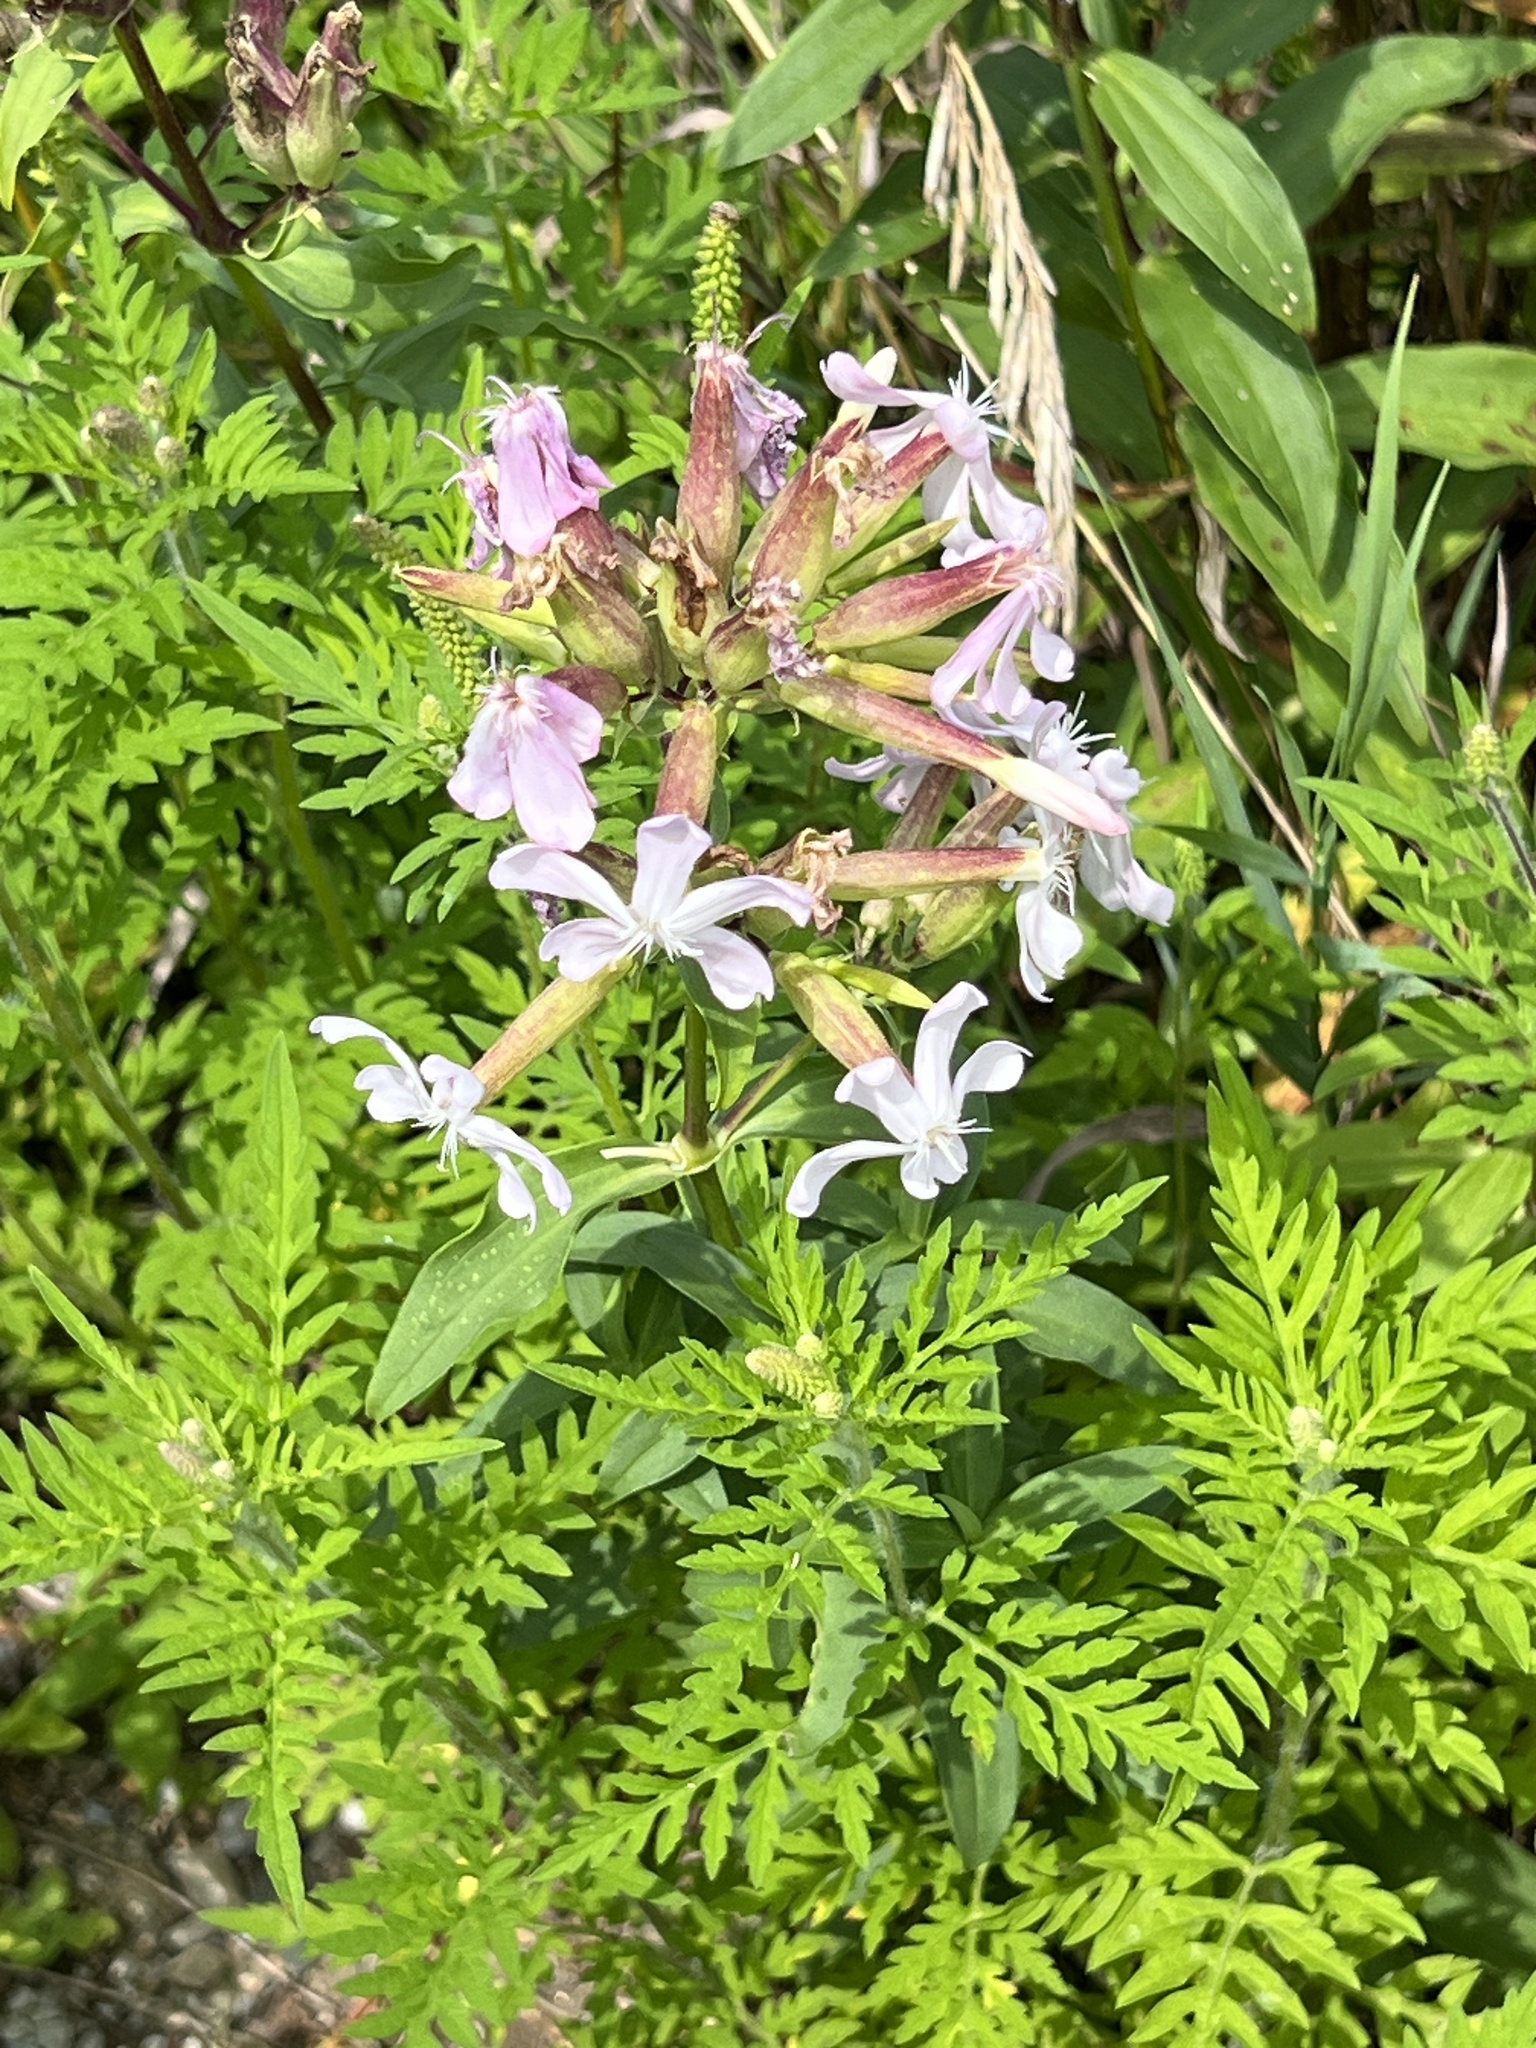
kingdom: Plantae
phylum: Tracheophyta
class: Magnoliopsida
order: Caryophyllales
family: Caryophyllaceae
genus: Saponaria
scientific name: Saponaria officinalis
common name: Soapwort
